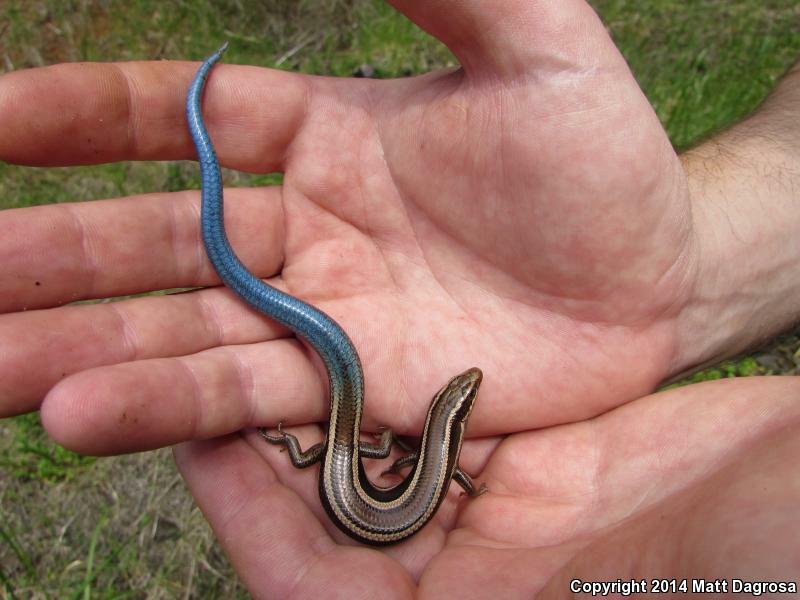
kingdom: Animalia
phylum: Chordata
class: Squamata
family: Scincidae
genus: Plestiodon
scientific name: Plestiodon skiltonianus
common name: Coronado island skink [interparietalis]
